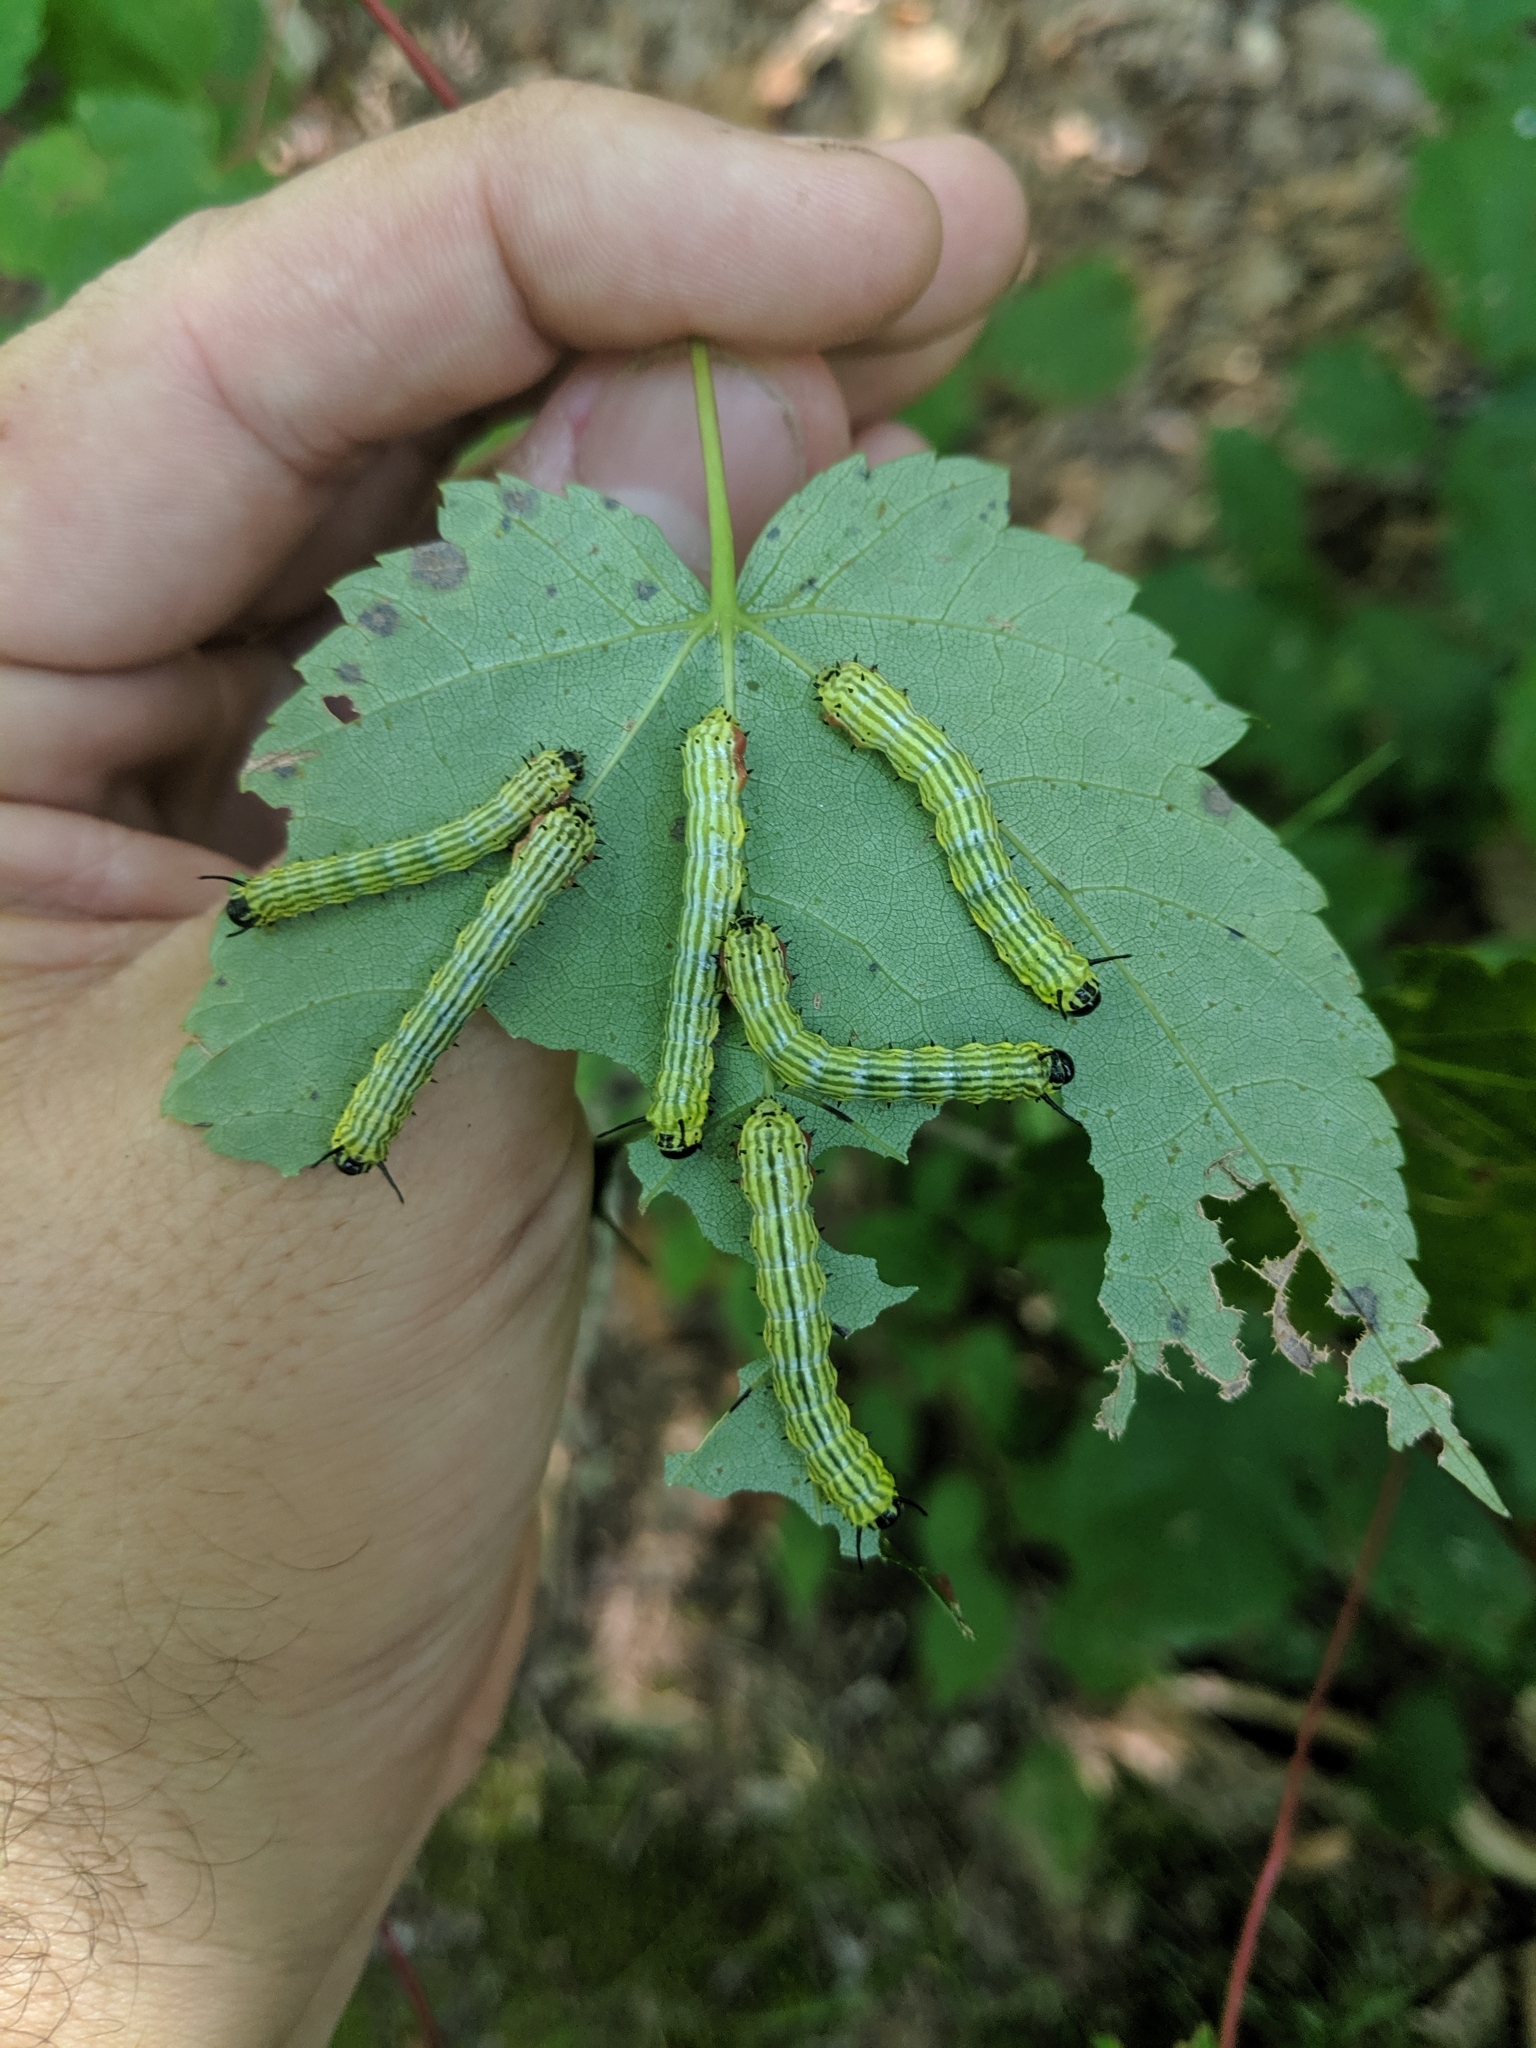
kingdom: Animalia
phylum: Arthropoda
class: Insecta
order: Lepidoptera
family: Saturniidae
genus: Dryocampa
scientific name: Dryocampa rubicunda
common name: Rosy maple moth
